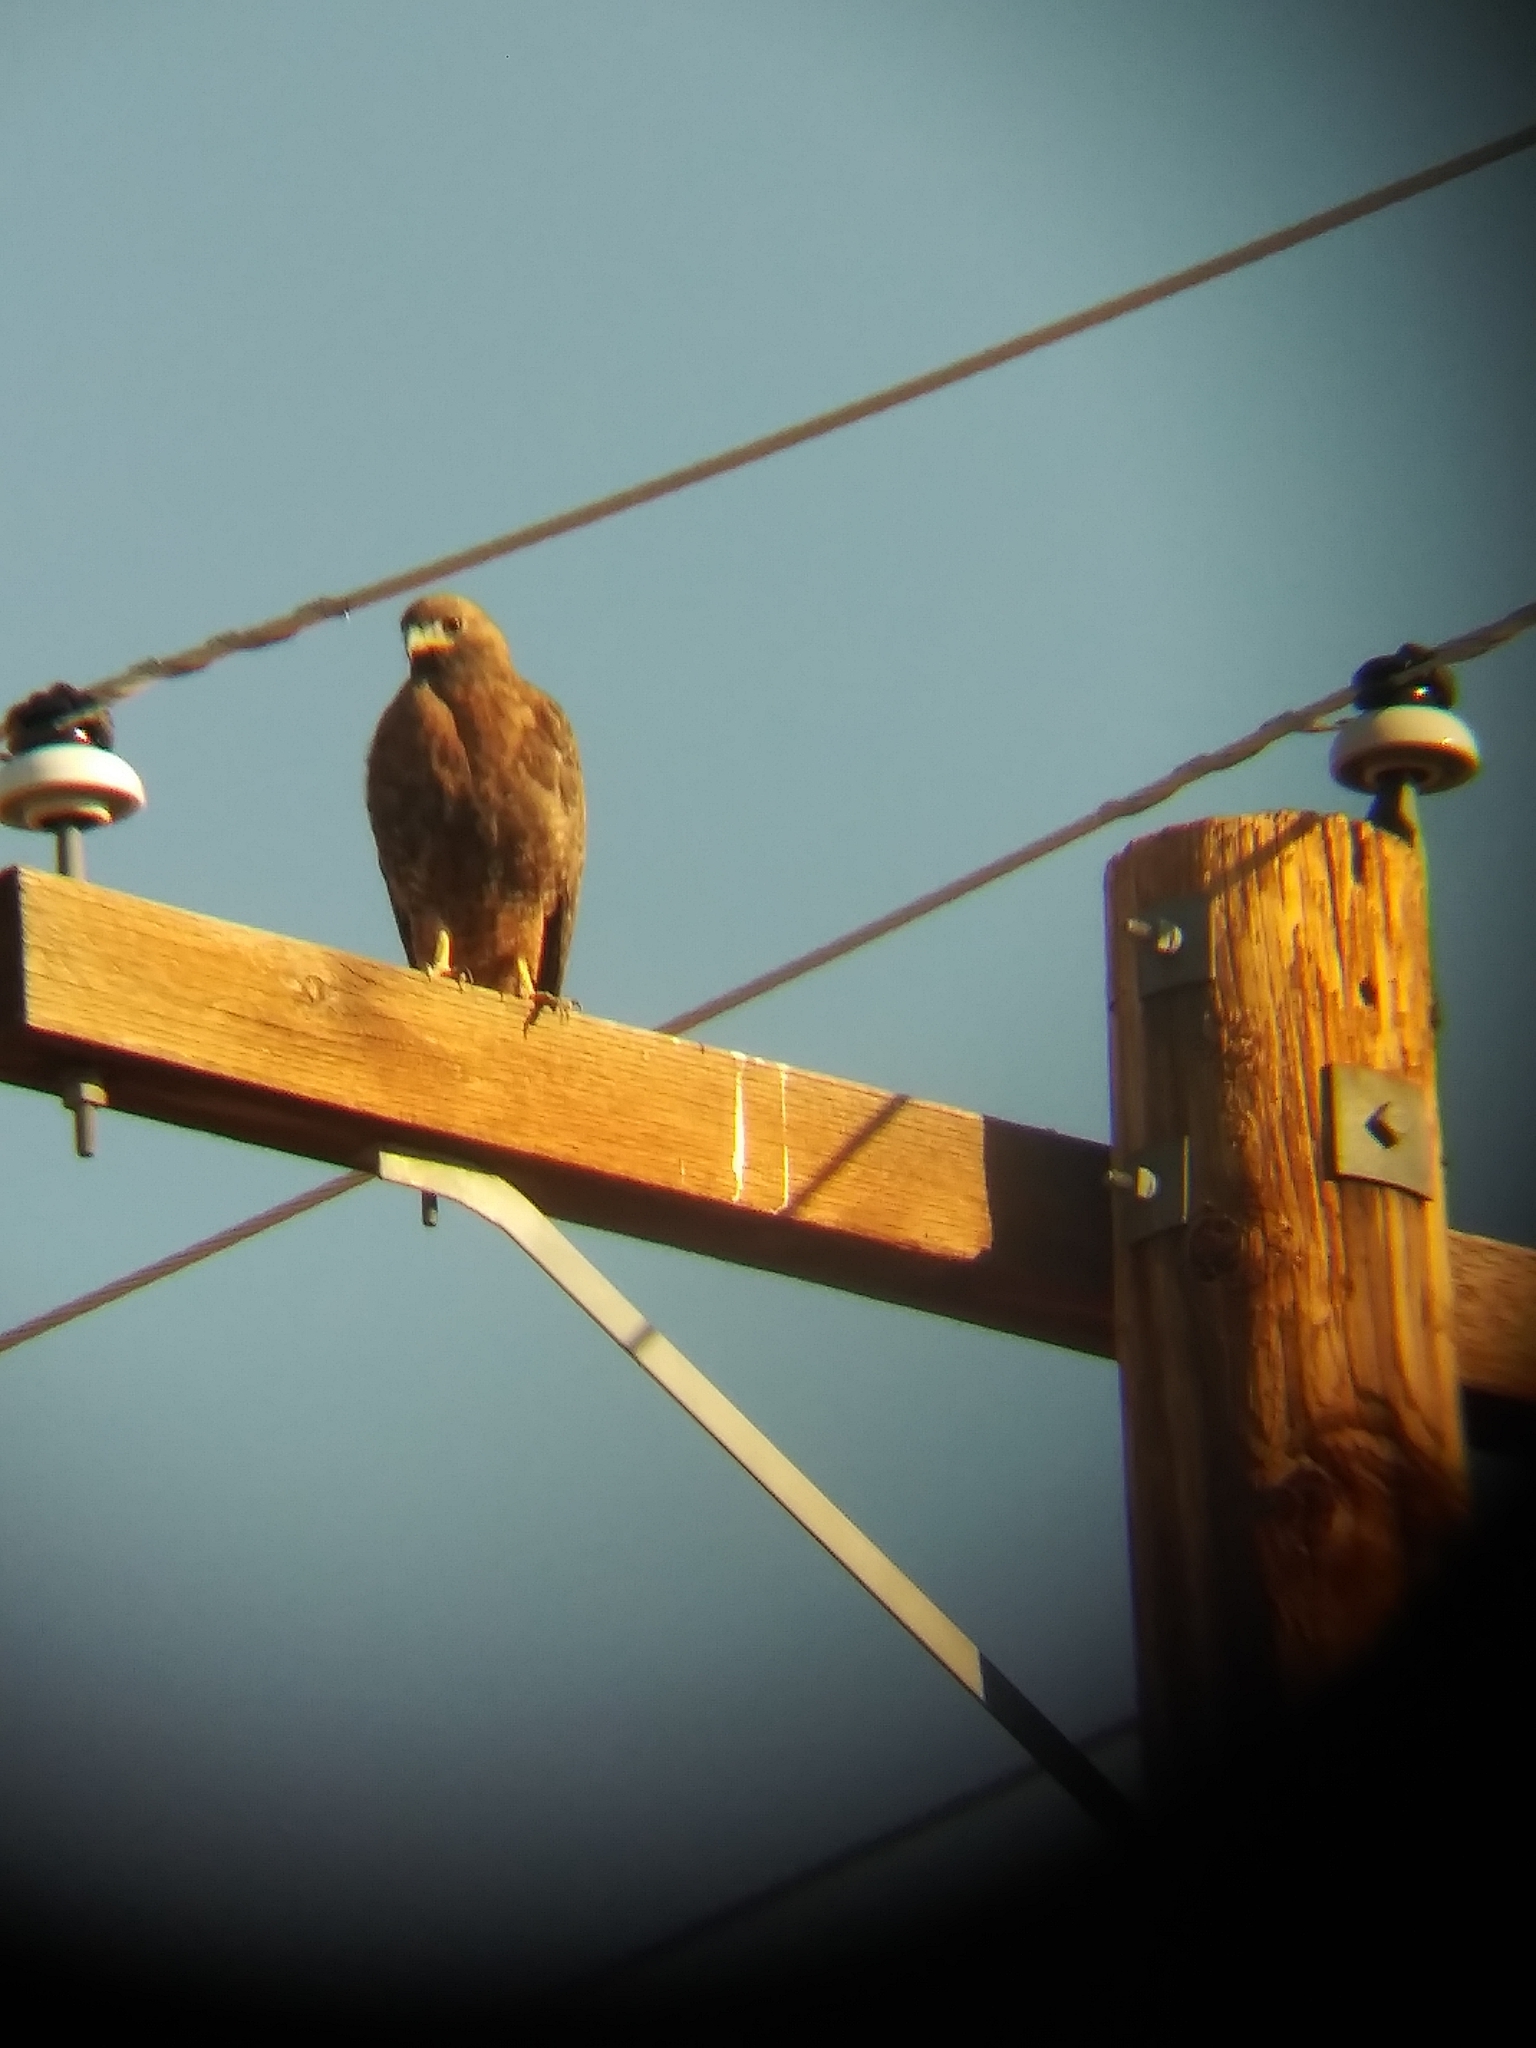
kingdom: Animalia
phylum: Chordata
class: Aves
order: Accipitriformes
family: Accipitridae
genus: Buteo
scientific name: Buteo jamaicensis
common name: Red-tailed hawk
